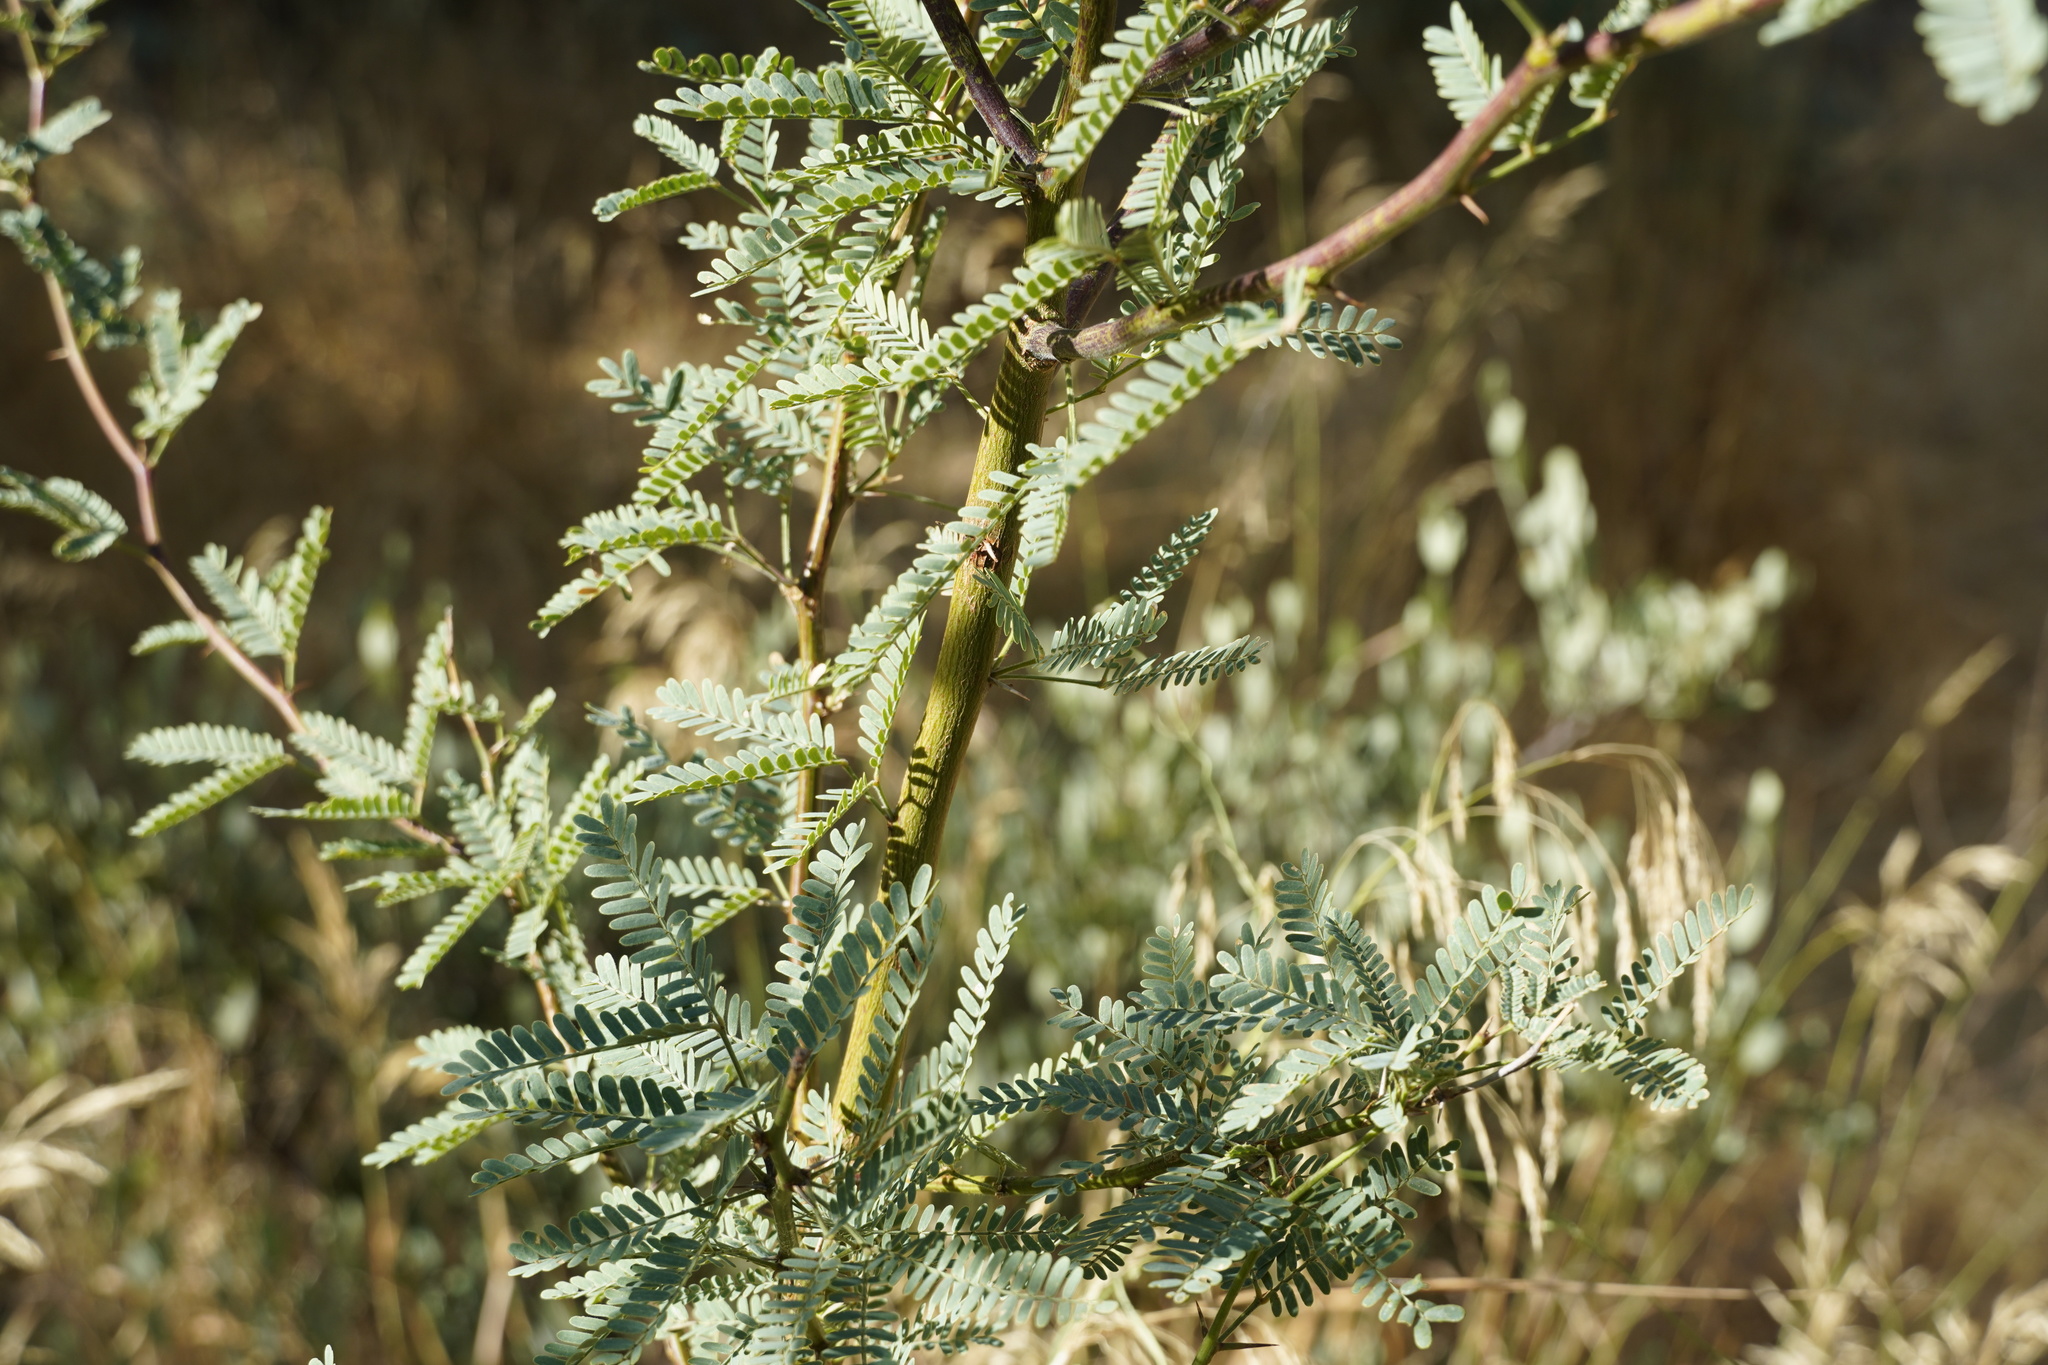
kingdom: Plantae
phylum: Tracheophyta
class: Magnoliopsida
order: Fabales
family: Fabaceae
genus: Prosopis
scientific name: Prosopis velutina
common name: Velvet mesquite
